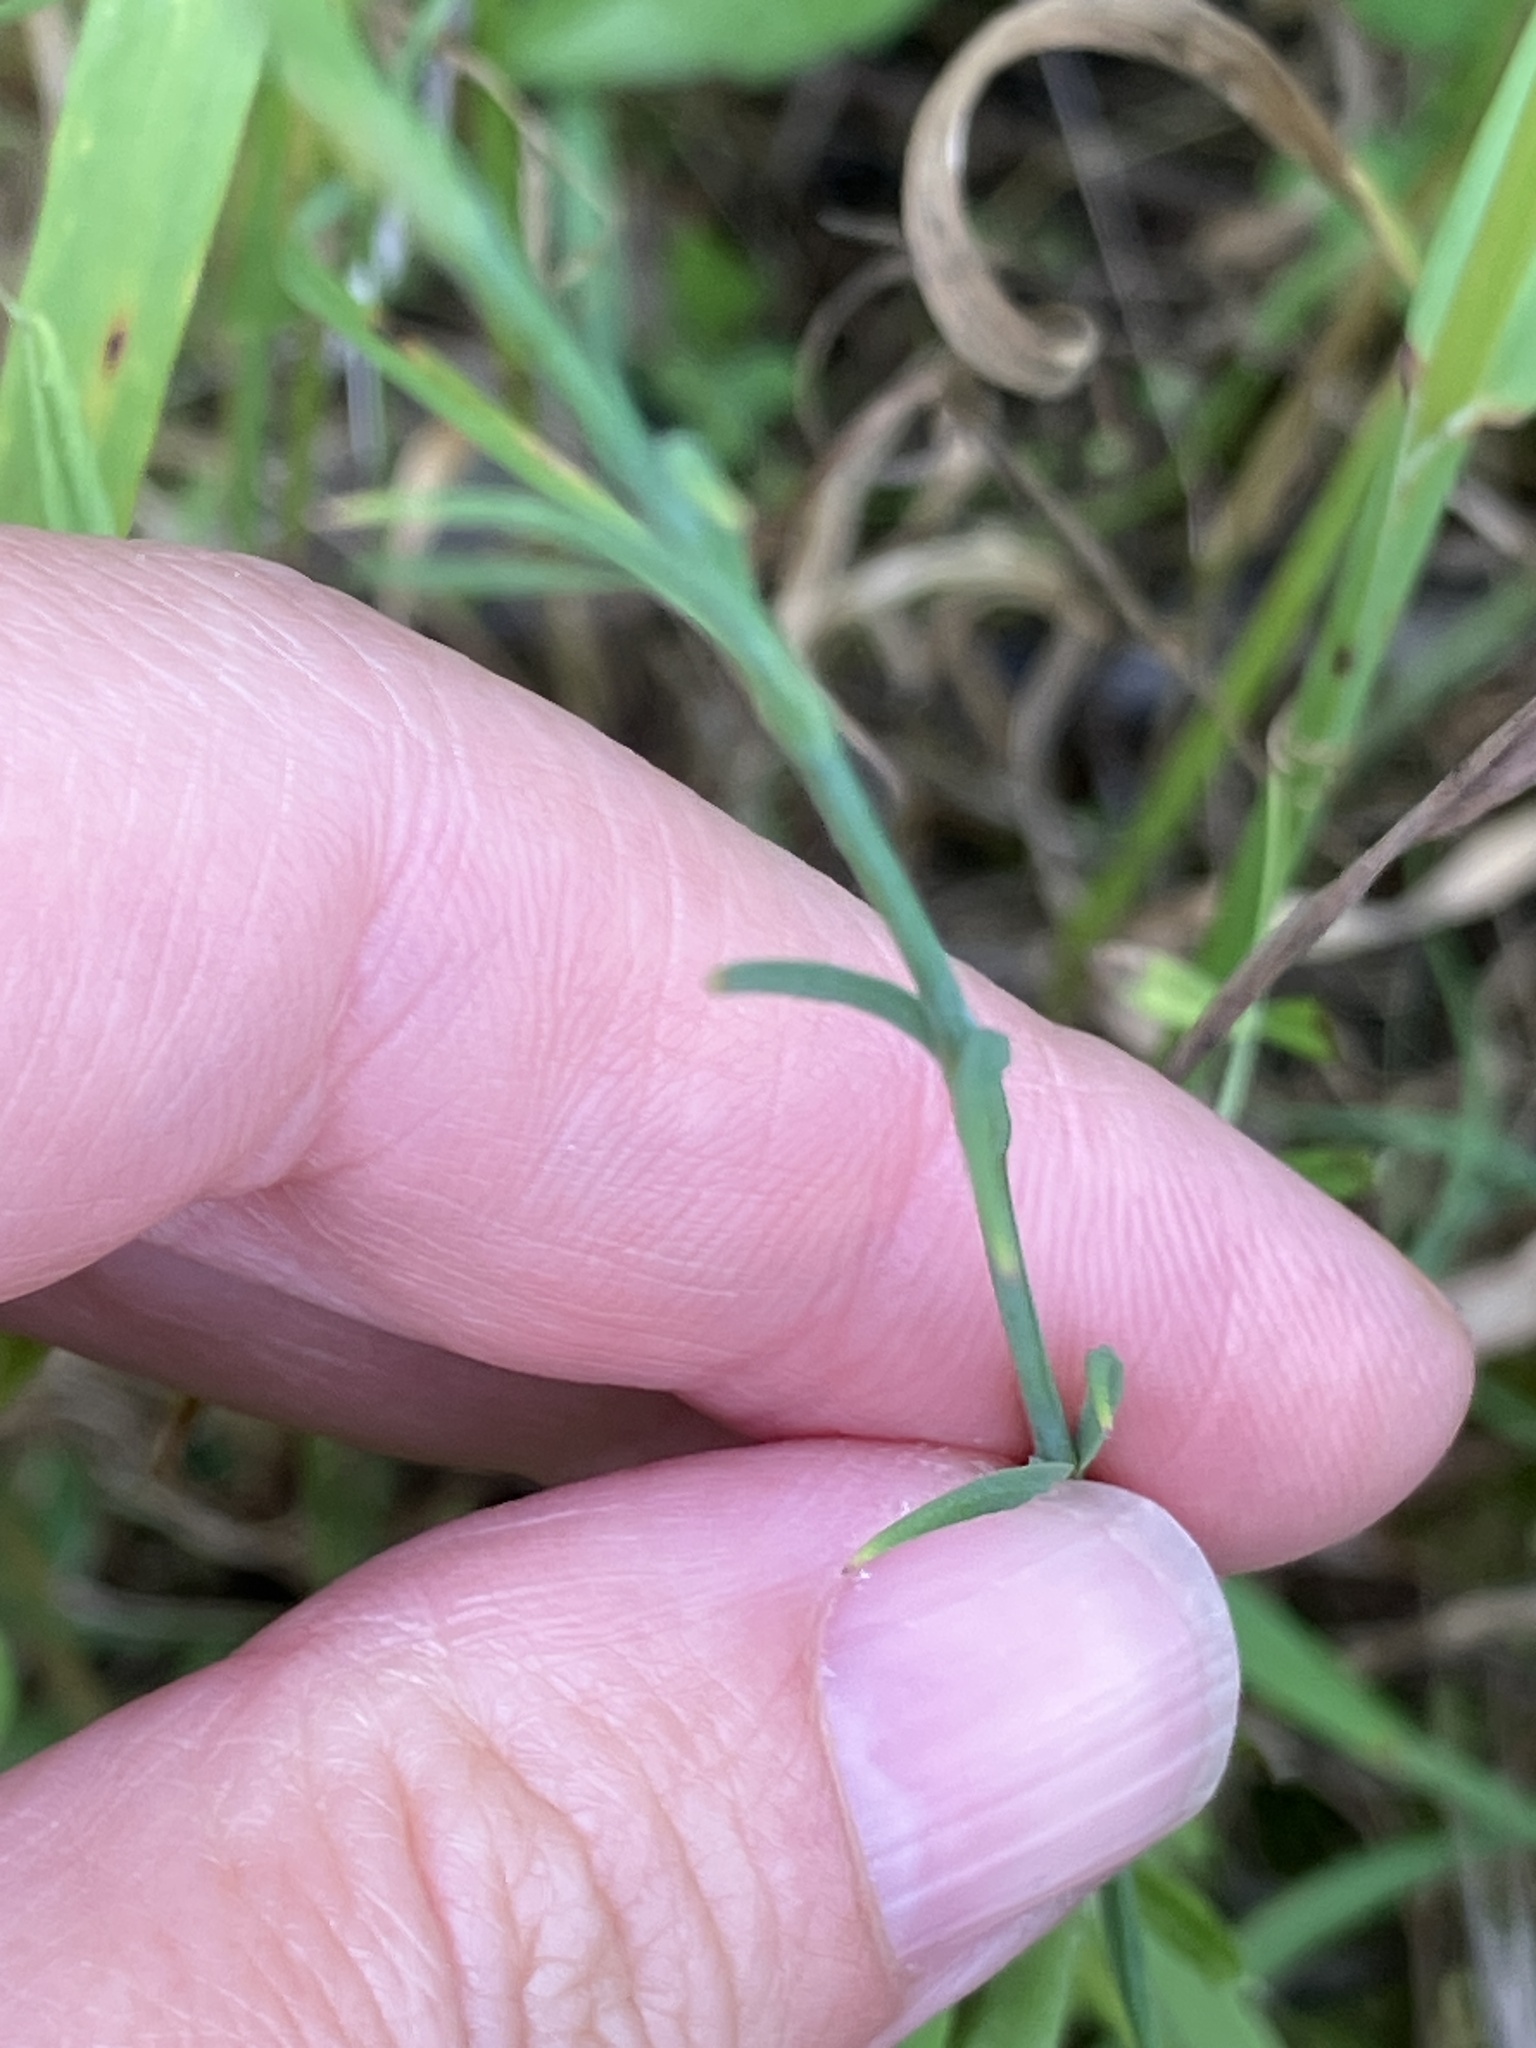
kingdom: Plantae
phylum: Tracheophyta
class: Magnoliopsida
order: Caryophyllales
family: Caryophyllaceae
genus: Petrorhagia
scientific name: Petrorhagia prolifera
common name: Proliferous pink
